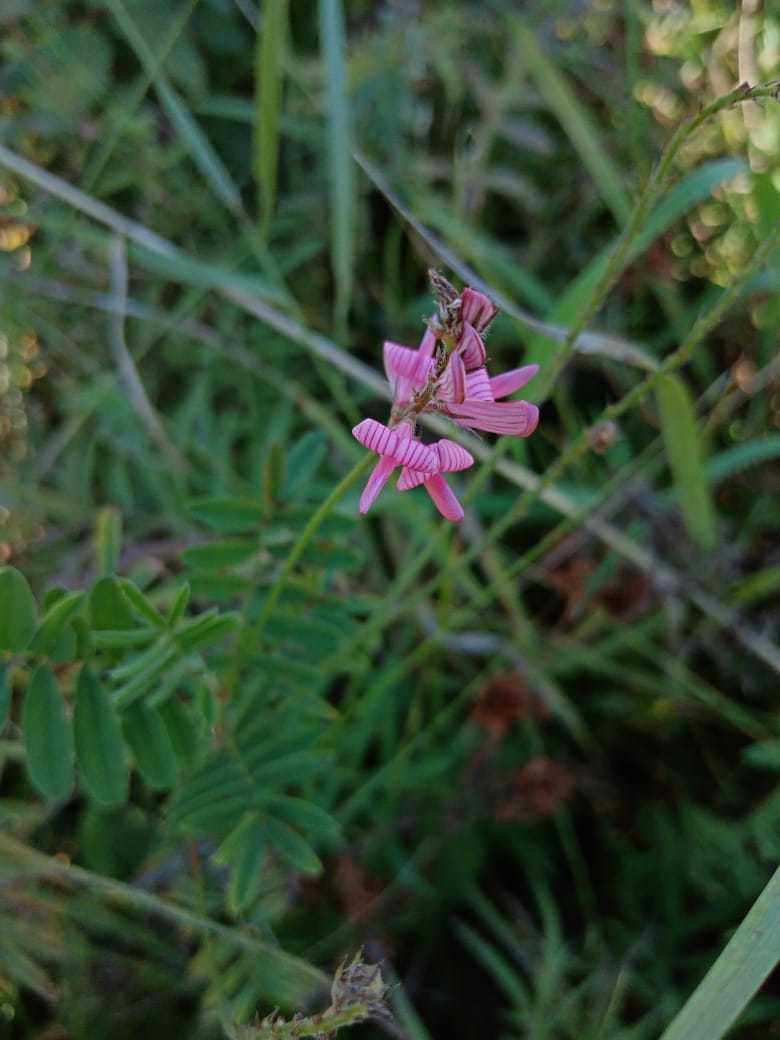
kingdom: Plantae
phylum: Tracheophyta
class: Magnoliopsida
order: Fabales
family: Fabaceae
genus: Onobrychis
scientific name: Onobrychis arenaria
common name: Sand esparcet
